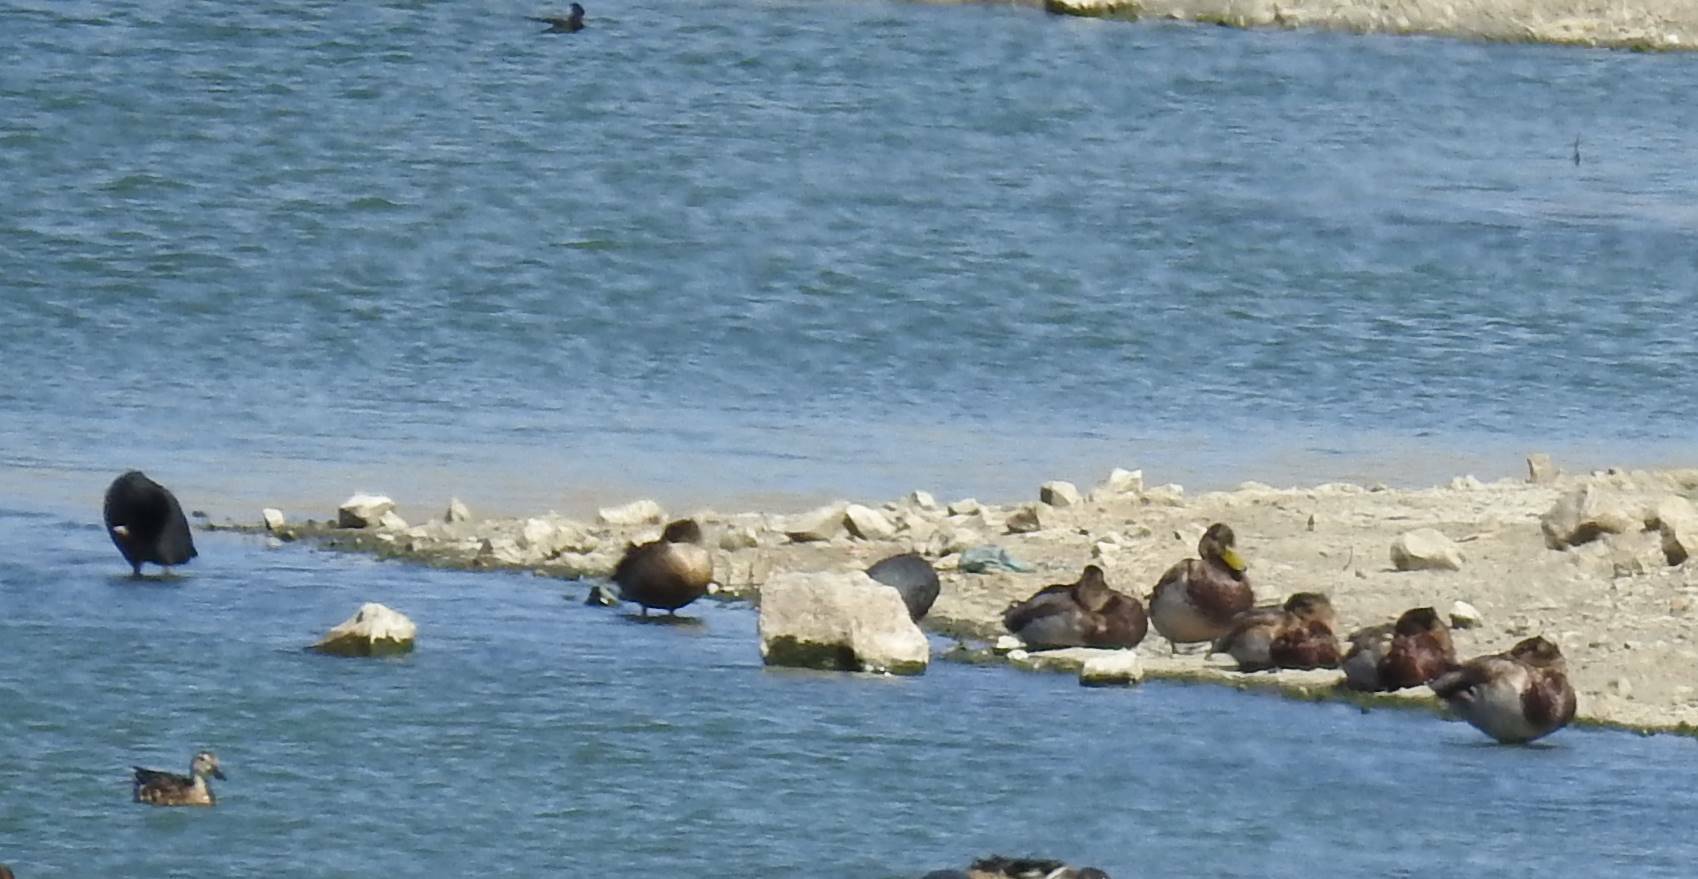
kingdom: Animalia
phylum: Chordata
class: Aves
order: Anseriformes
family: Anatidae
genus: Anas
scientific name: Anas platyrhynchos
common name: Mallard
